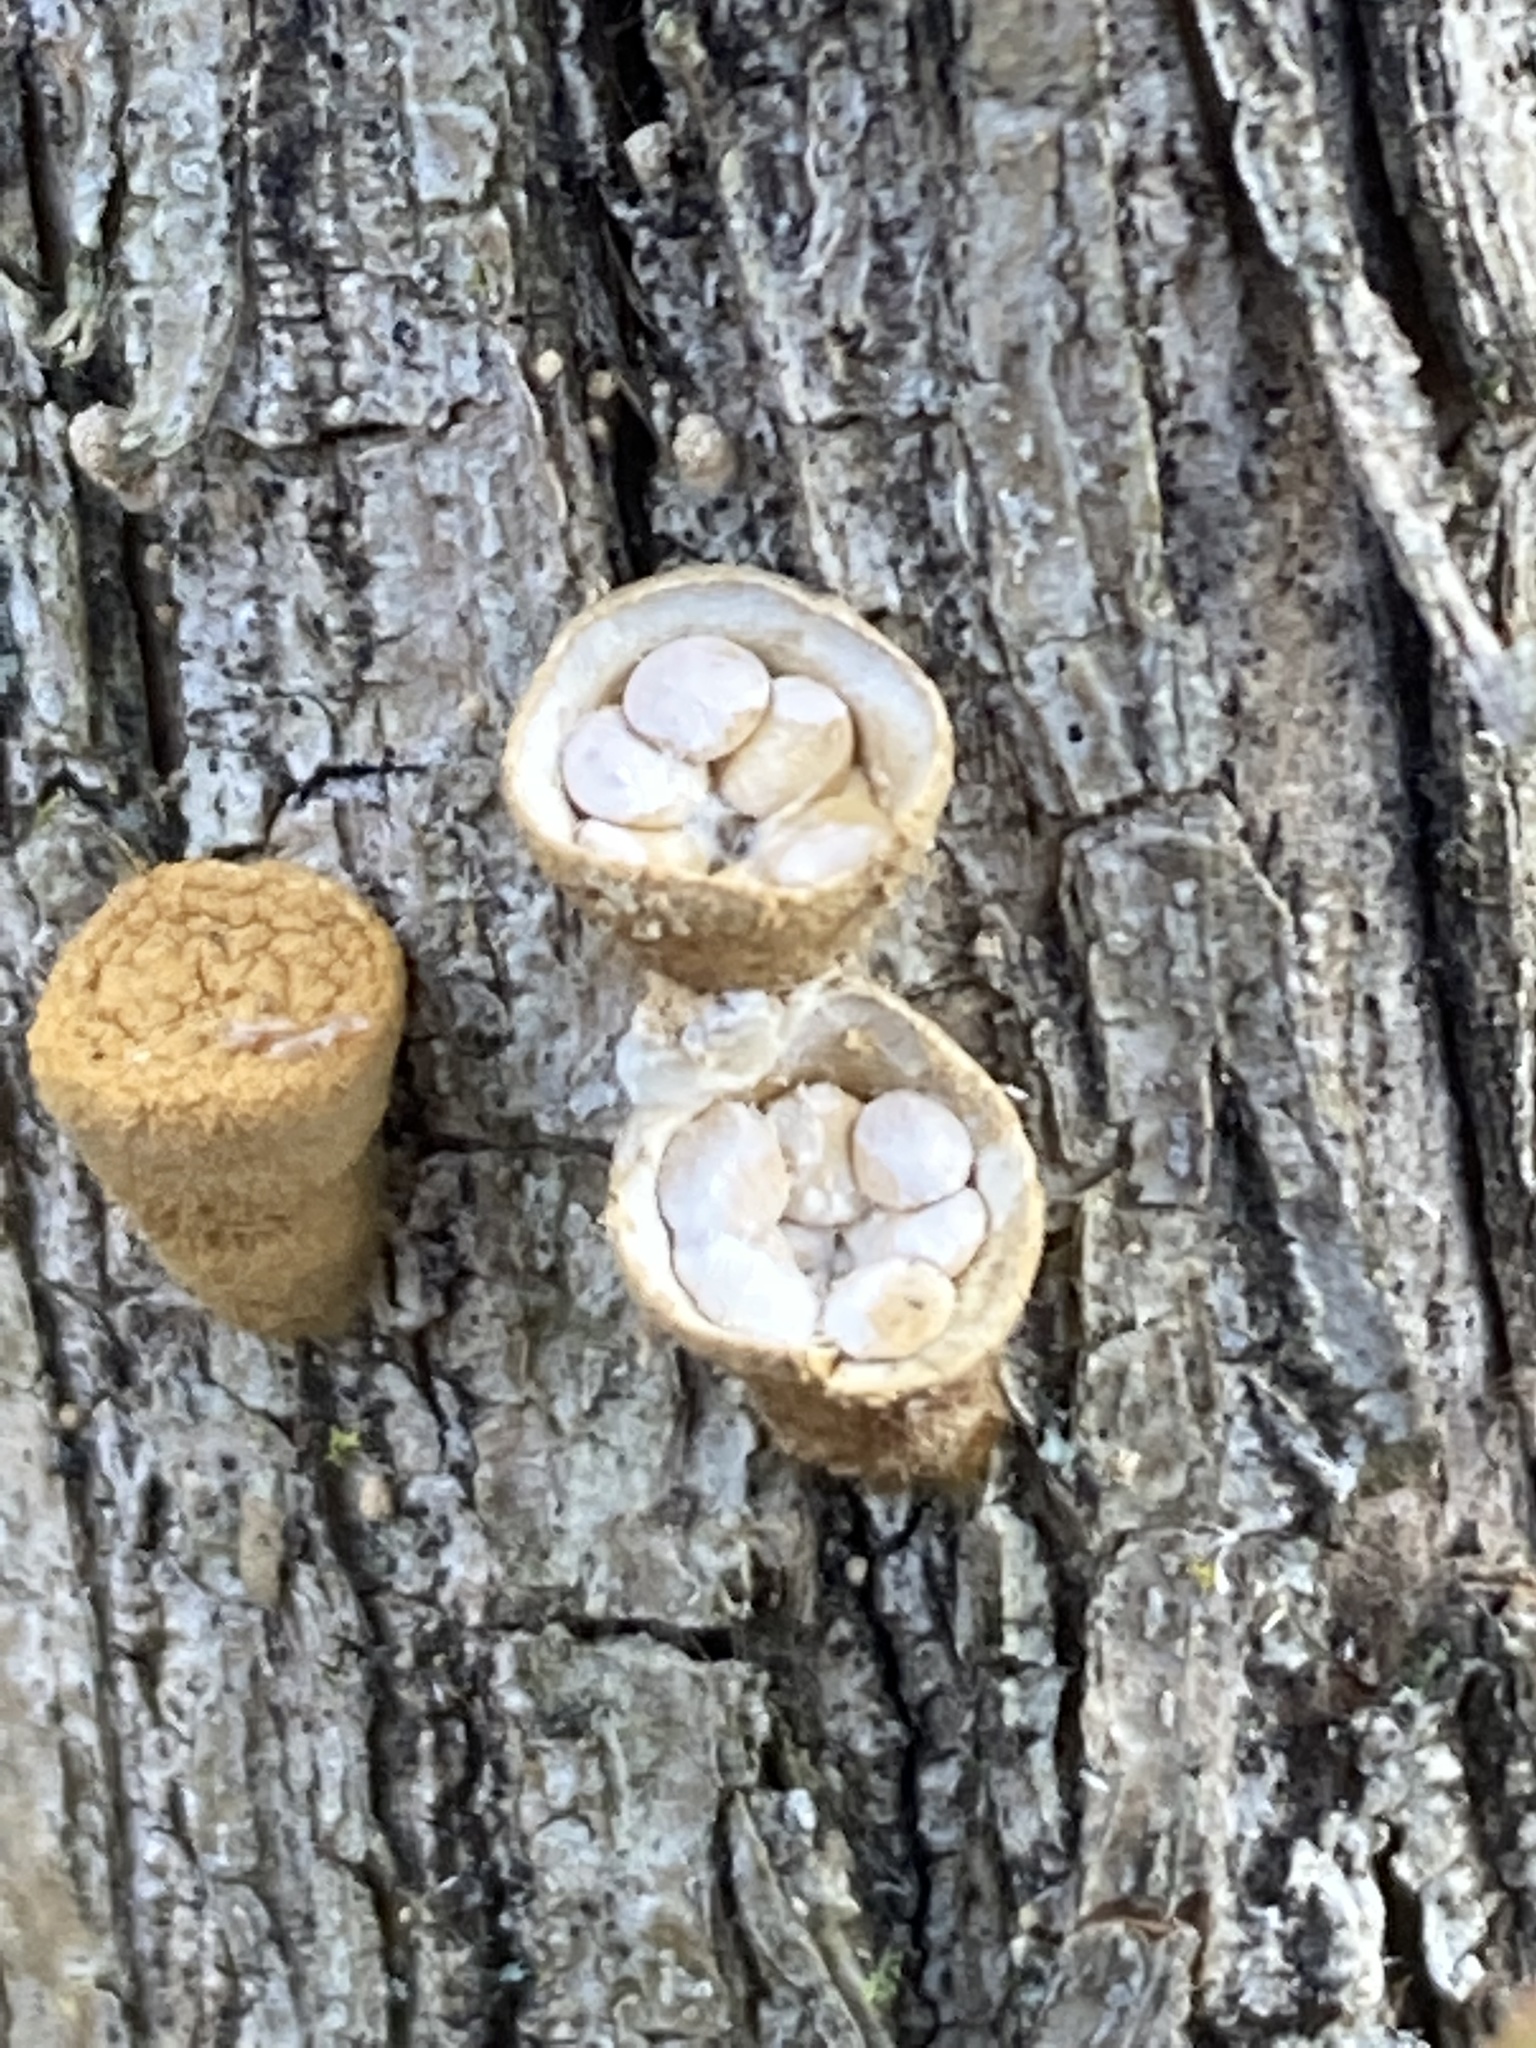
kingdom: Fungi
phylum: Basidiomycota
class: Agaricomycetes
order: Agaricales
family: Nidulariaceae
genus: Crucibulum
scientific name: Crucibulum laeve
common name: Common bird's nest
